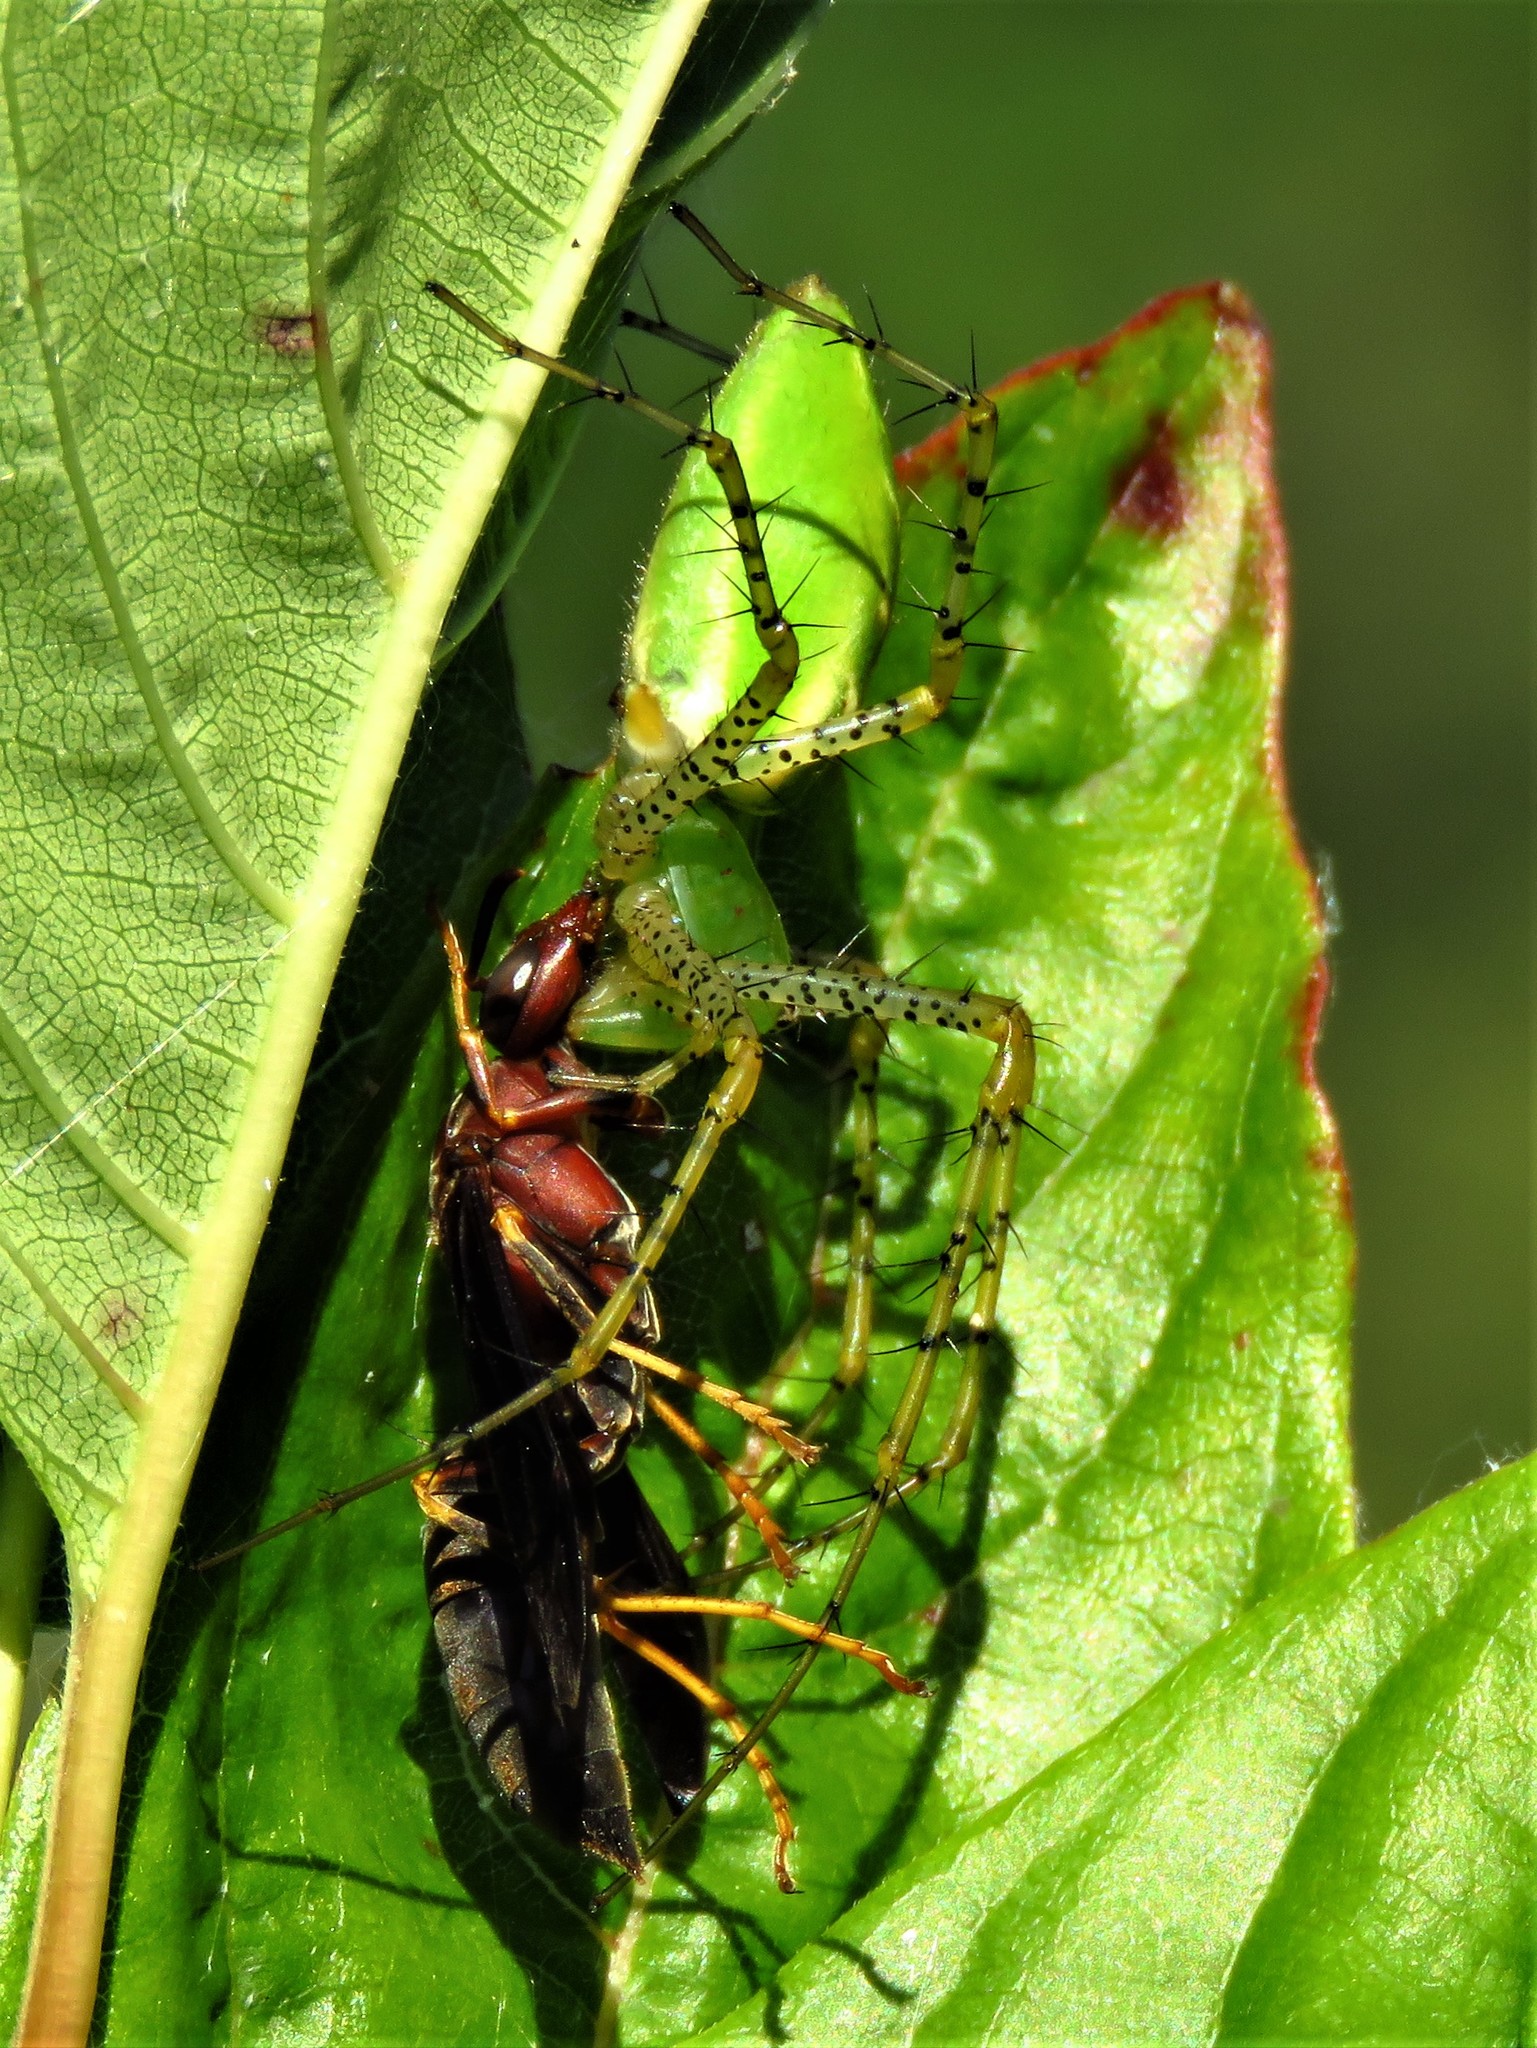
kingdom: Animalia
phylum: Arthropoda
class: Arachnida
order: Araneae
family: Oxyopidae
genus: Peucetia
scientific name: Peucetia viridans
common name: Lynx spiders
